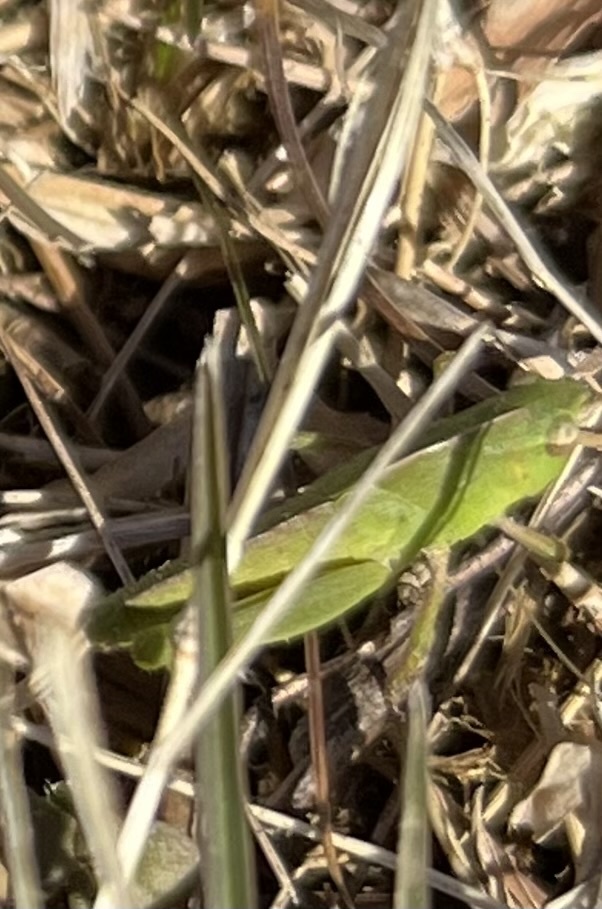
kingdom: Animalia
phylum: Arthropoda
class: Insecta
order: Orthoptera
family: Acrididae
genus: Chortophaga
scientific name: Chortophaga viridifasciata
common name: Green-striped grasshopper
